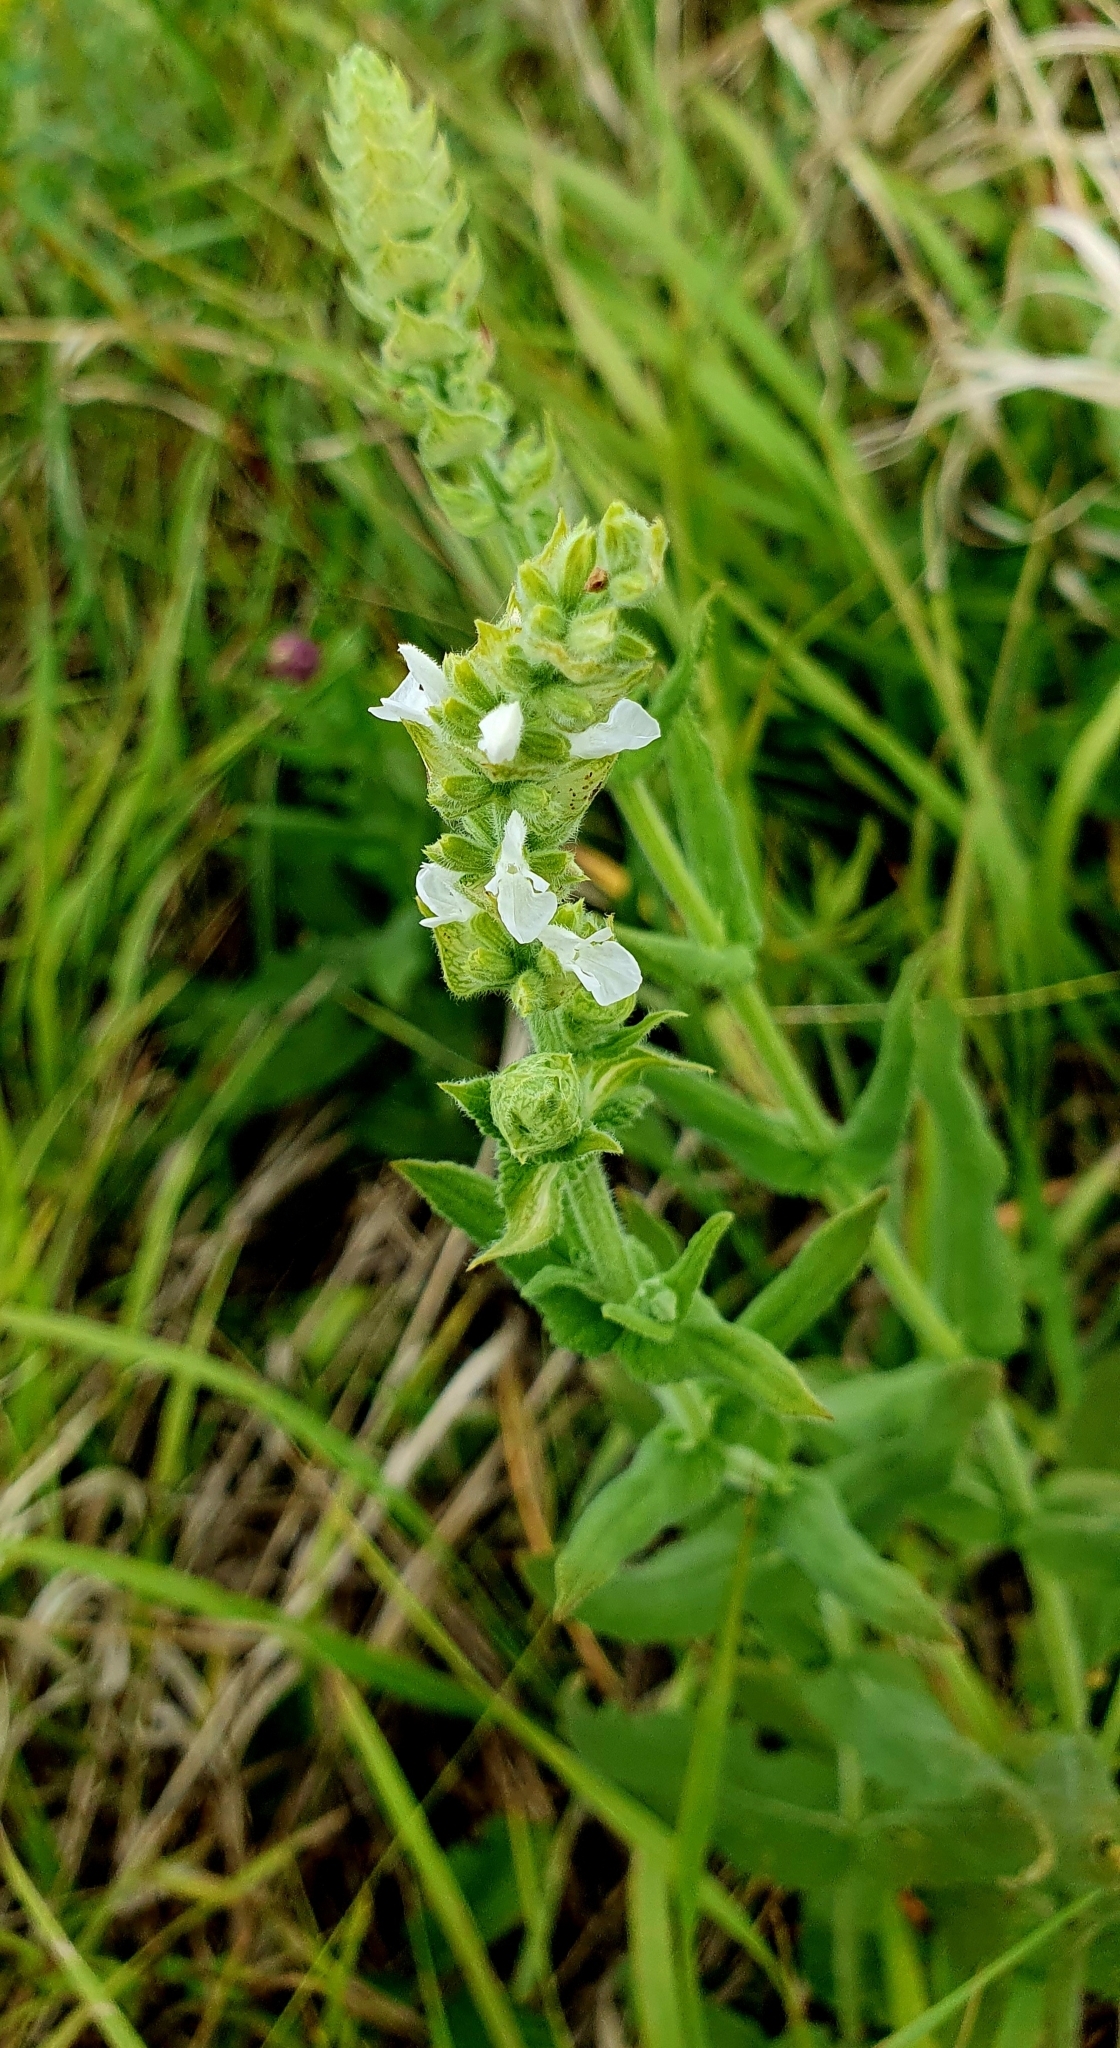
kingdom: Plantae
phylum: Tracheophyta
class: Magnoliopsida
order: Lamiales
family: Lamiaceae
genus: Salvia
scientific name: Salvia nemorosa
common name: Balkan clary
